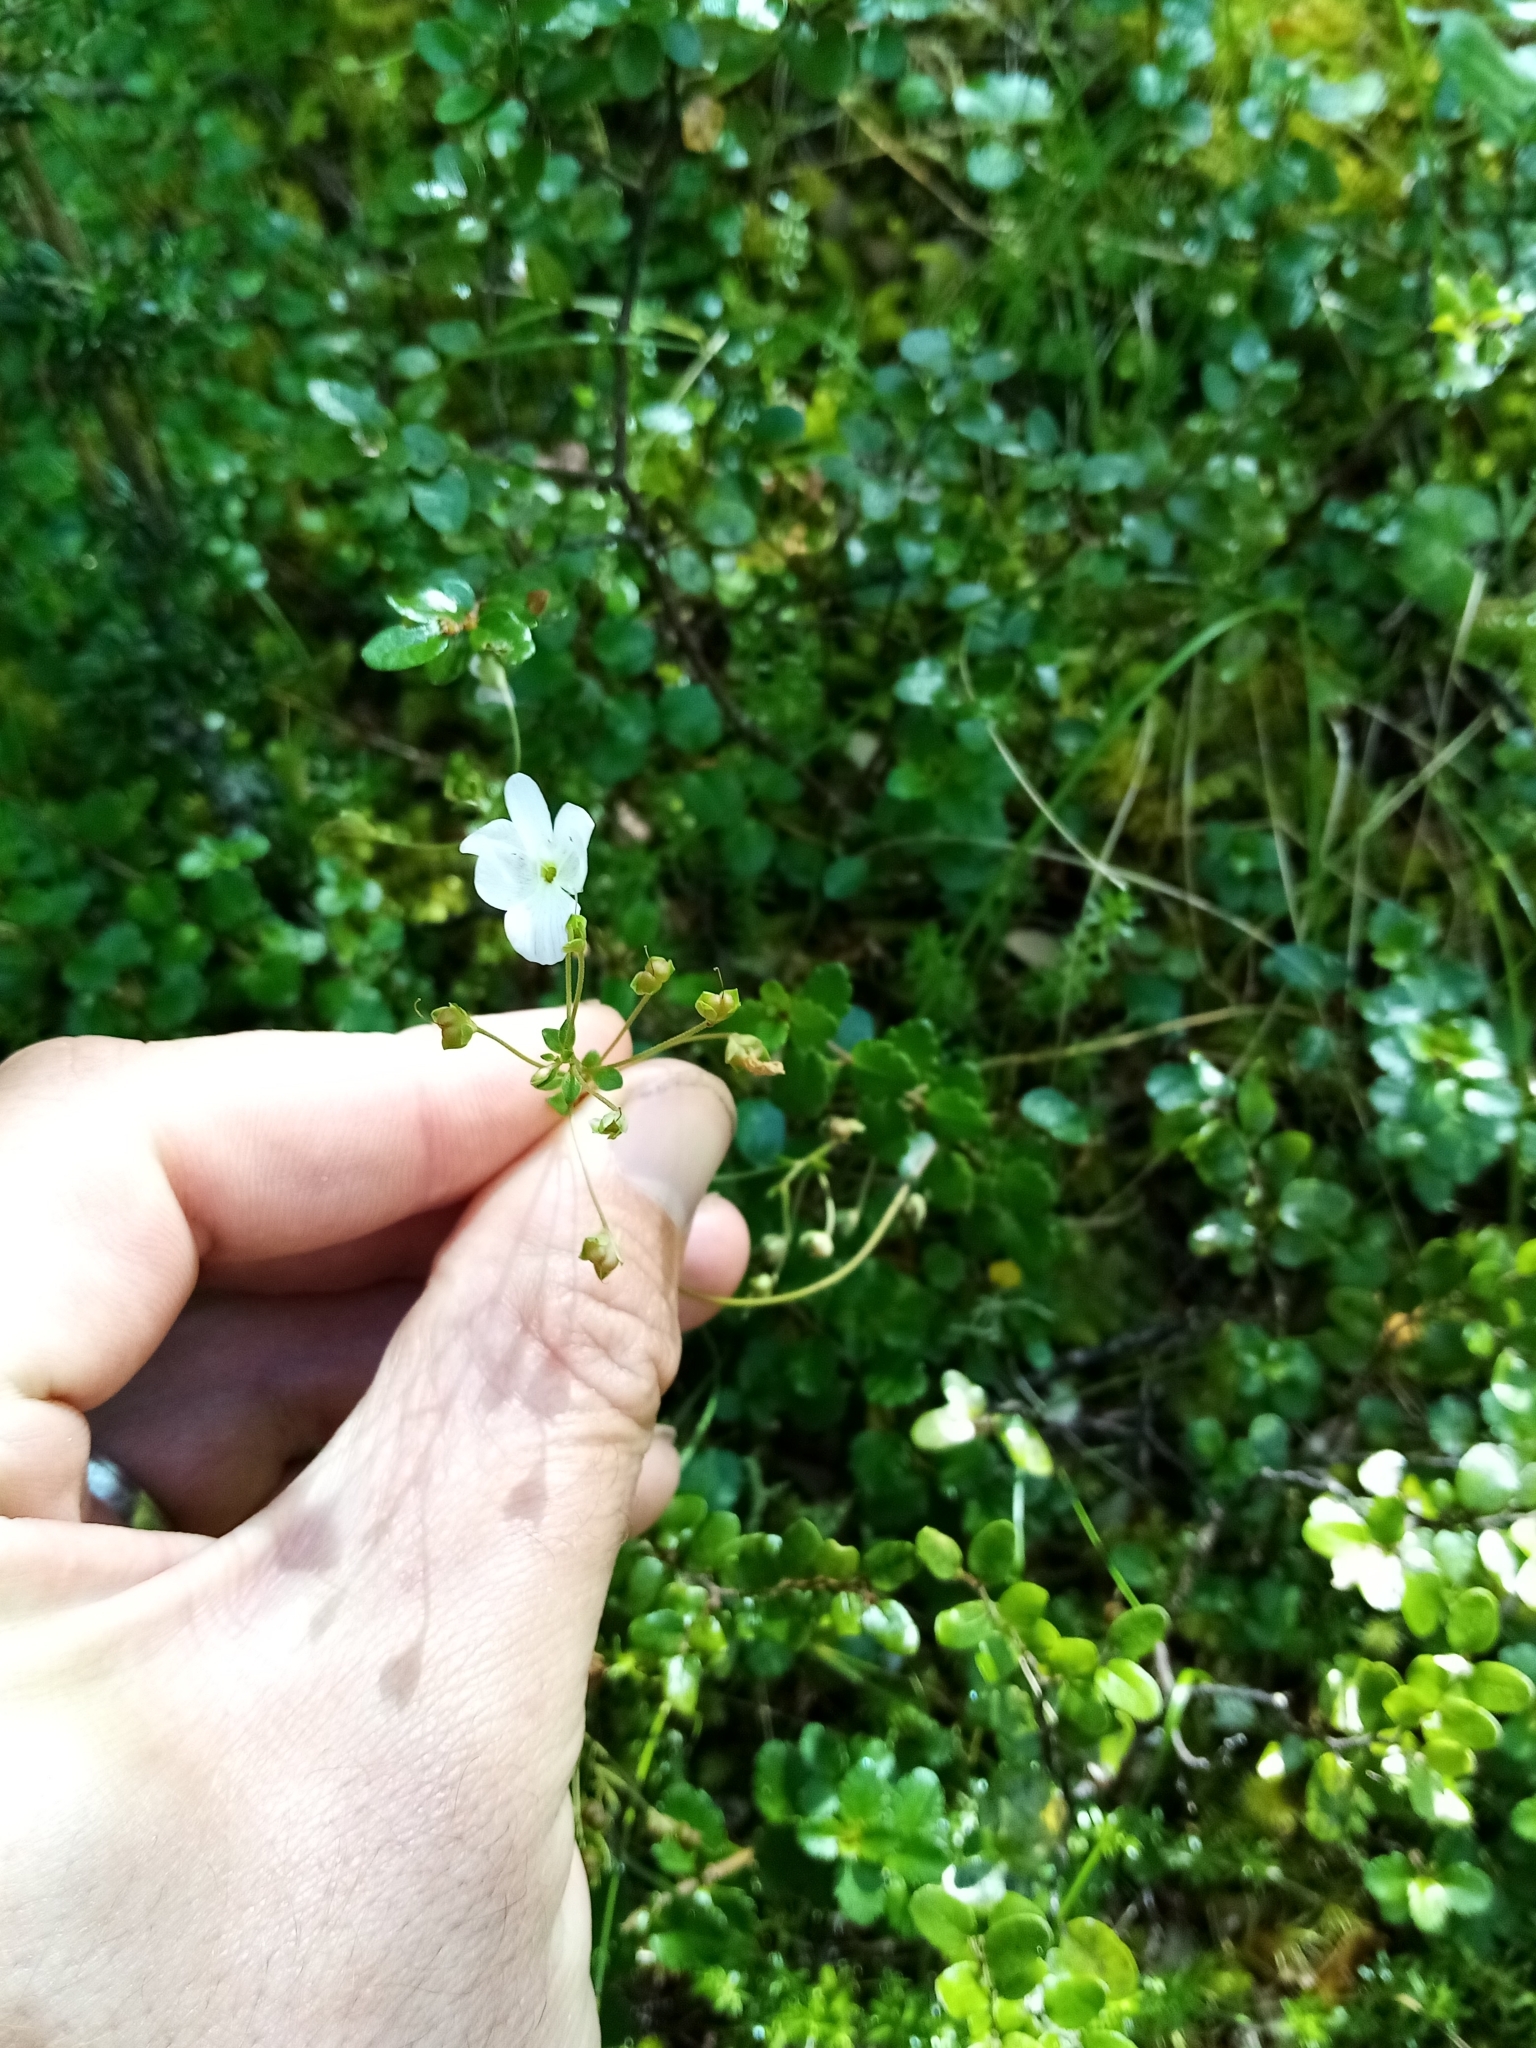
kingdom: Plantae
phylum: Tracheophyta
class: Magnoliopsida
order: Lamiales
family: Plantaginaceae
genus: Veronica
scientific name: Veronica lyallii
